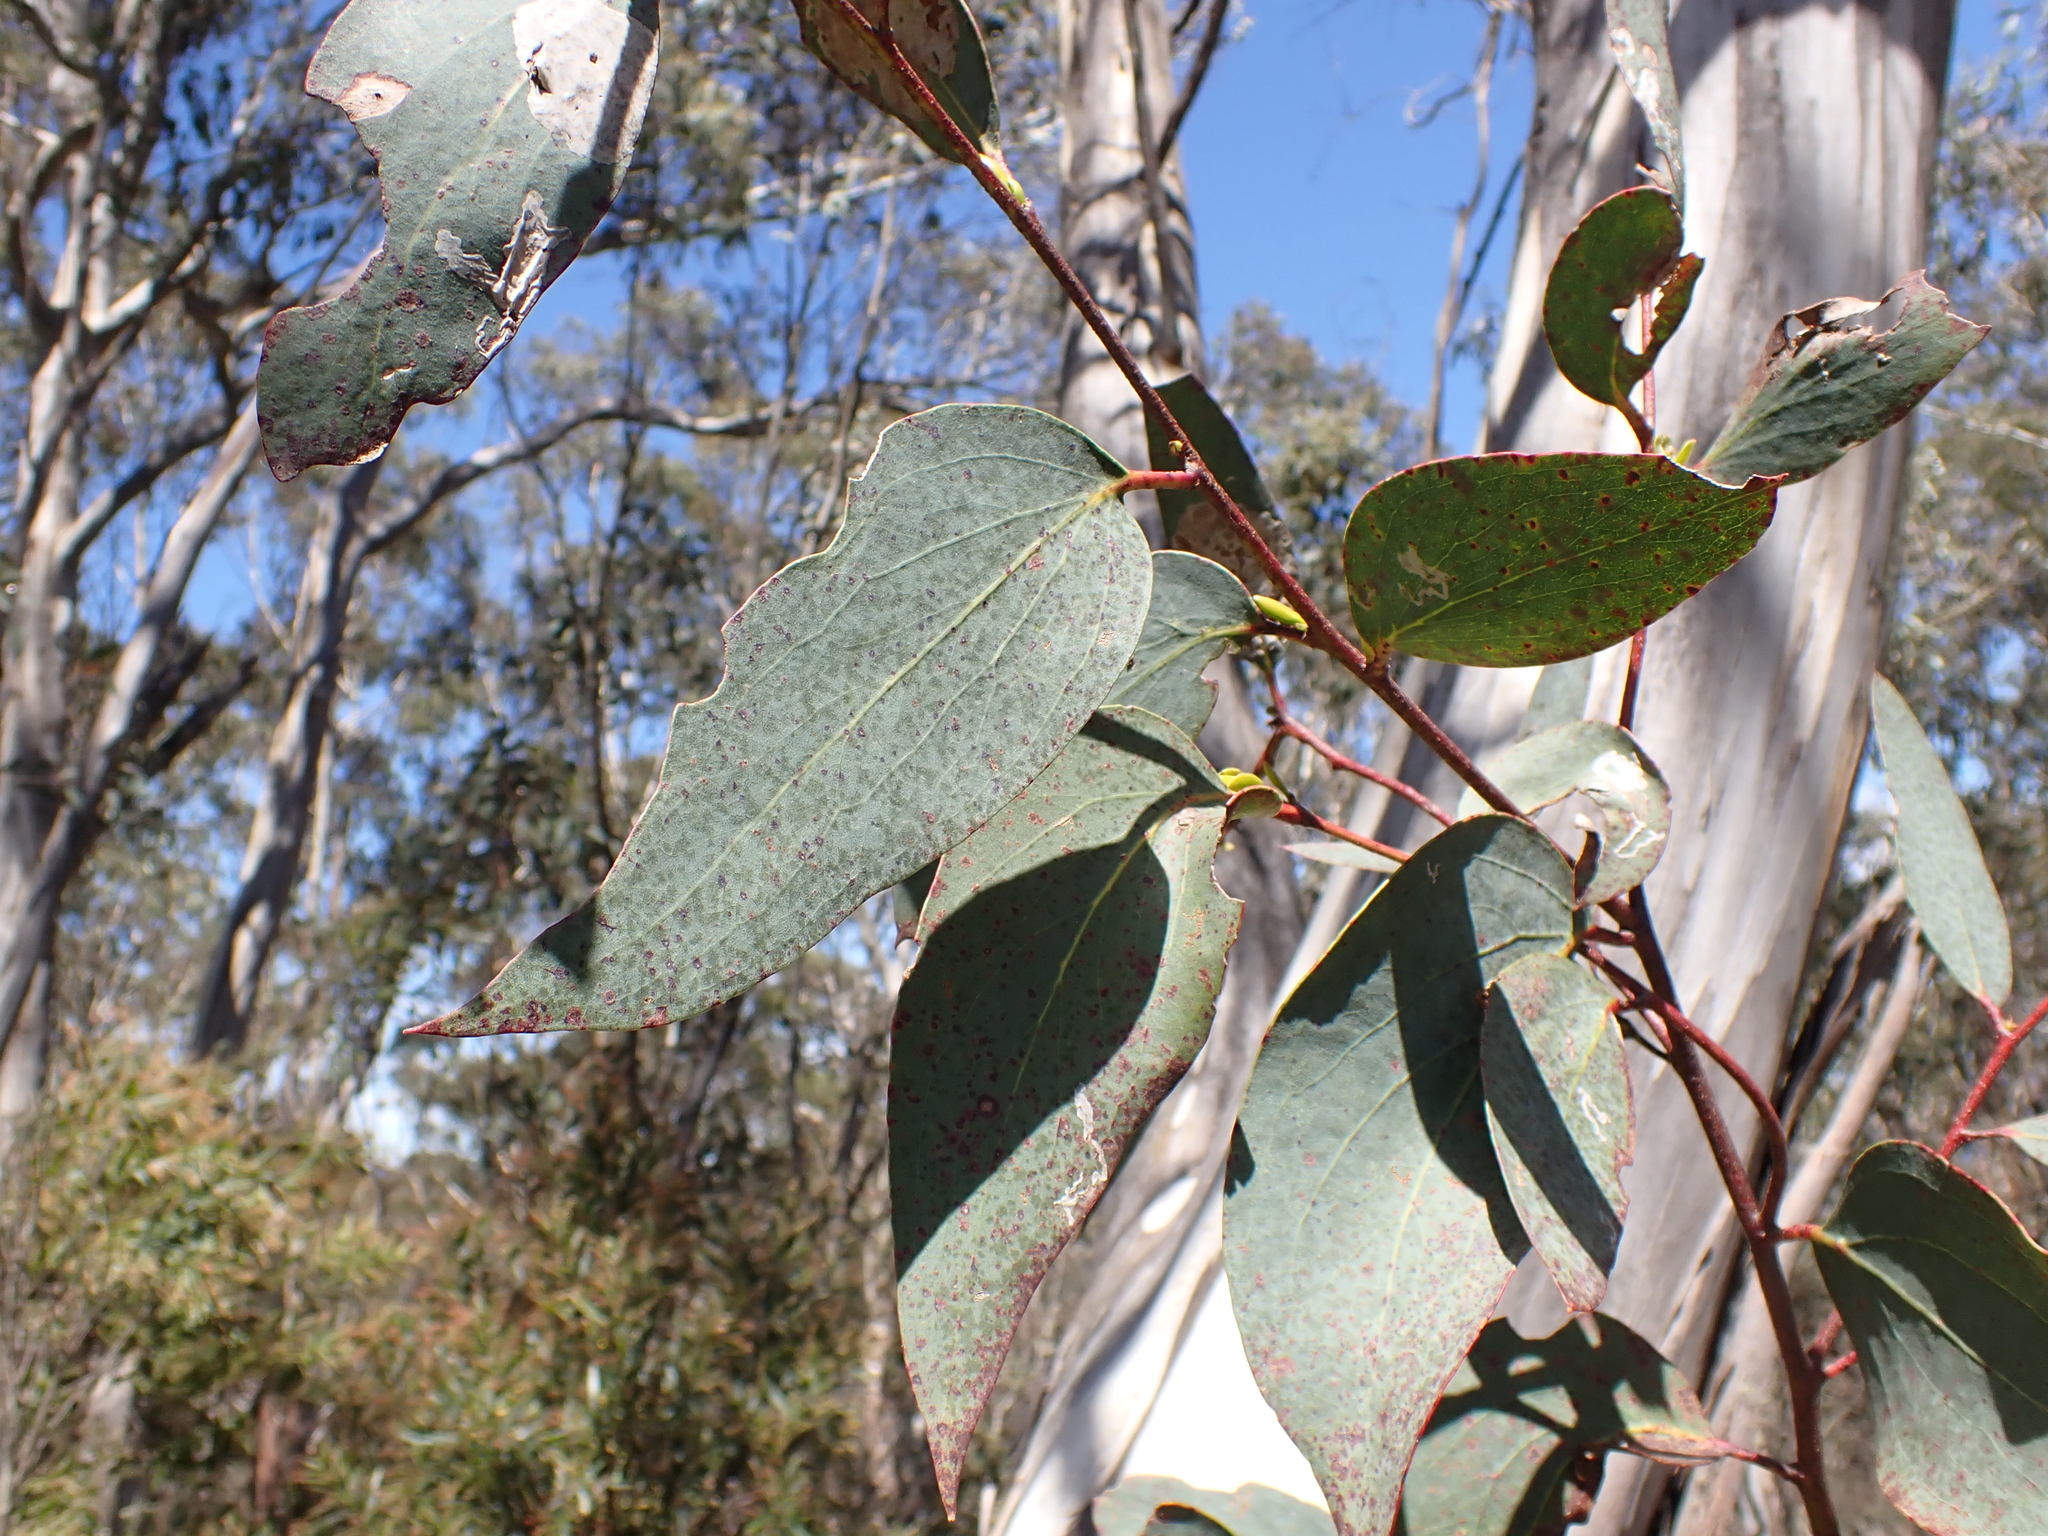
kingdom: Plantae
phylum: Tracheophyta
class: Magnoliopsida
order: Myrtales
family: Myrtaceae
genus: Eucalyptus
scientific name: Eucalyptus pauciflora
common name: Snow gum
